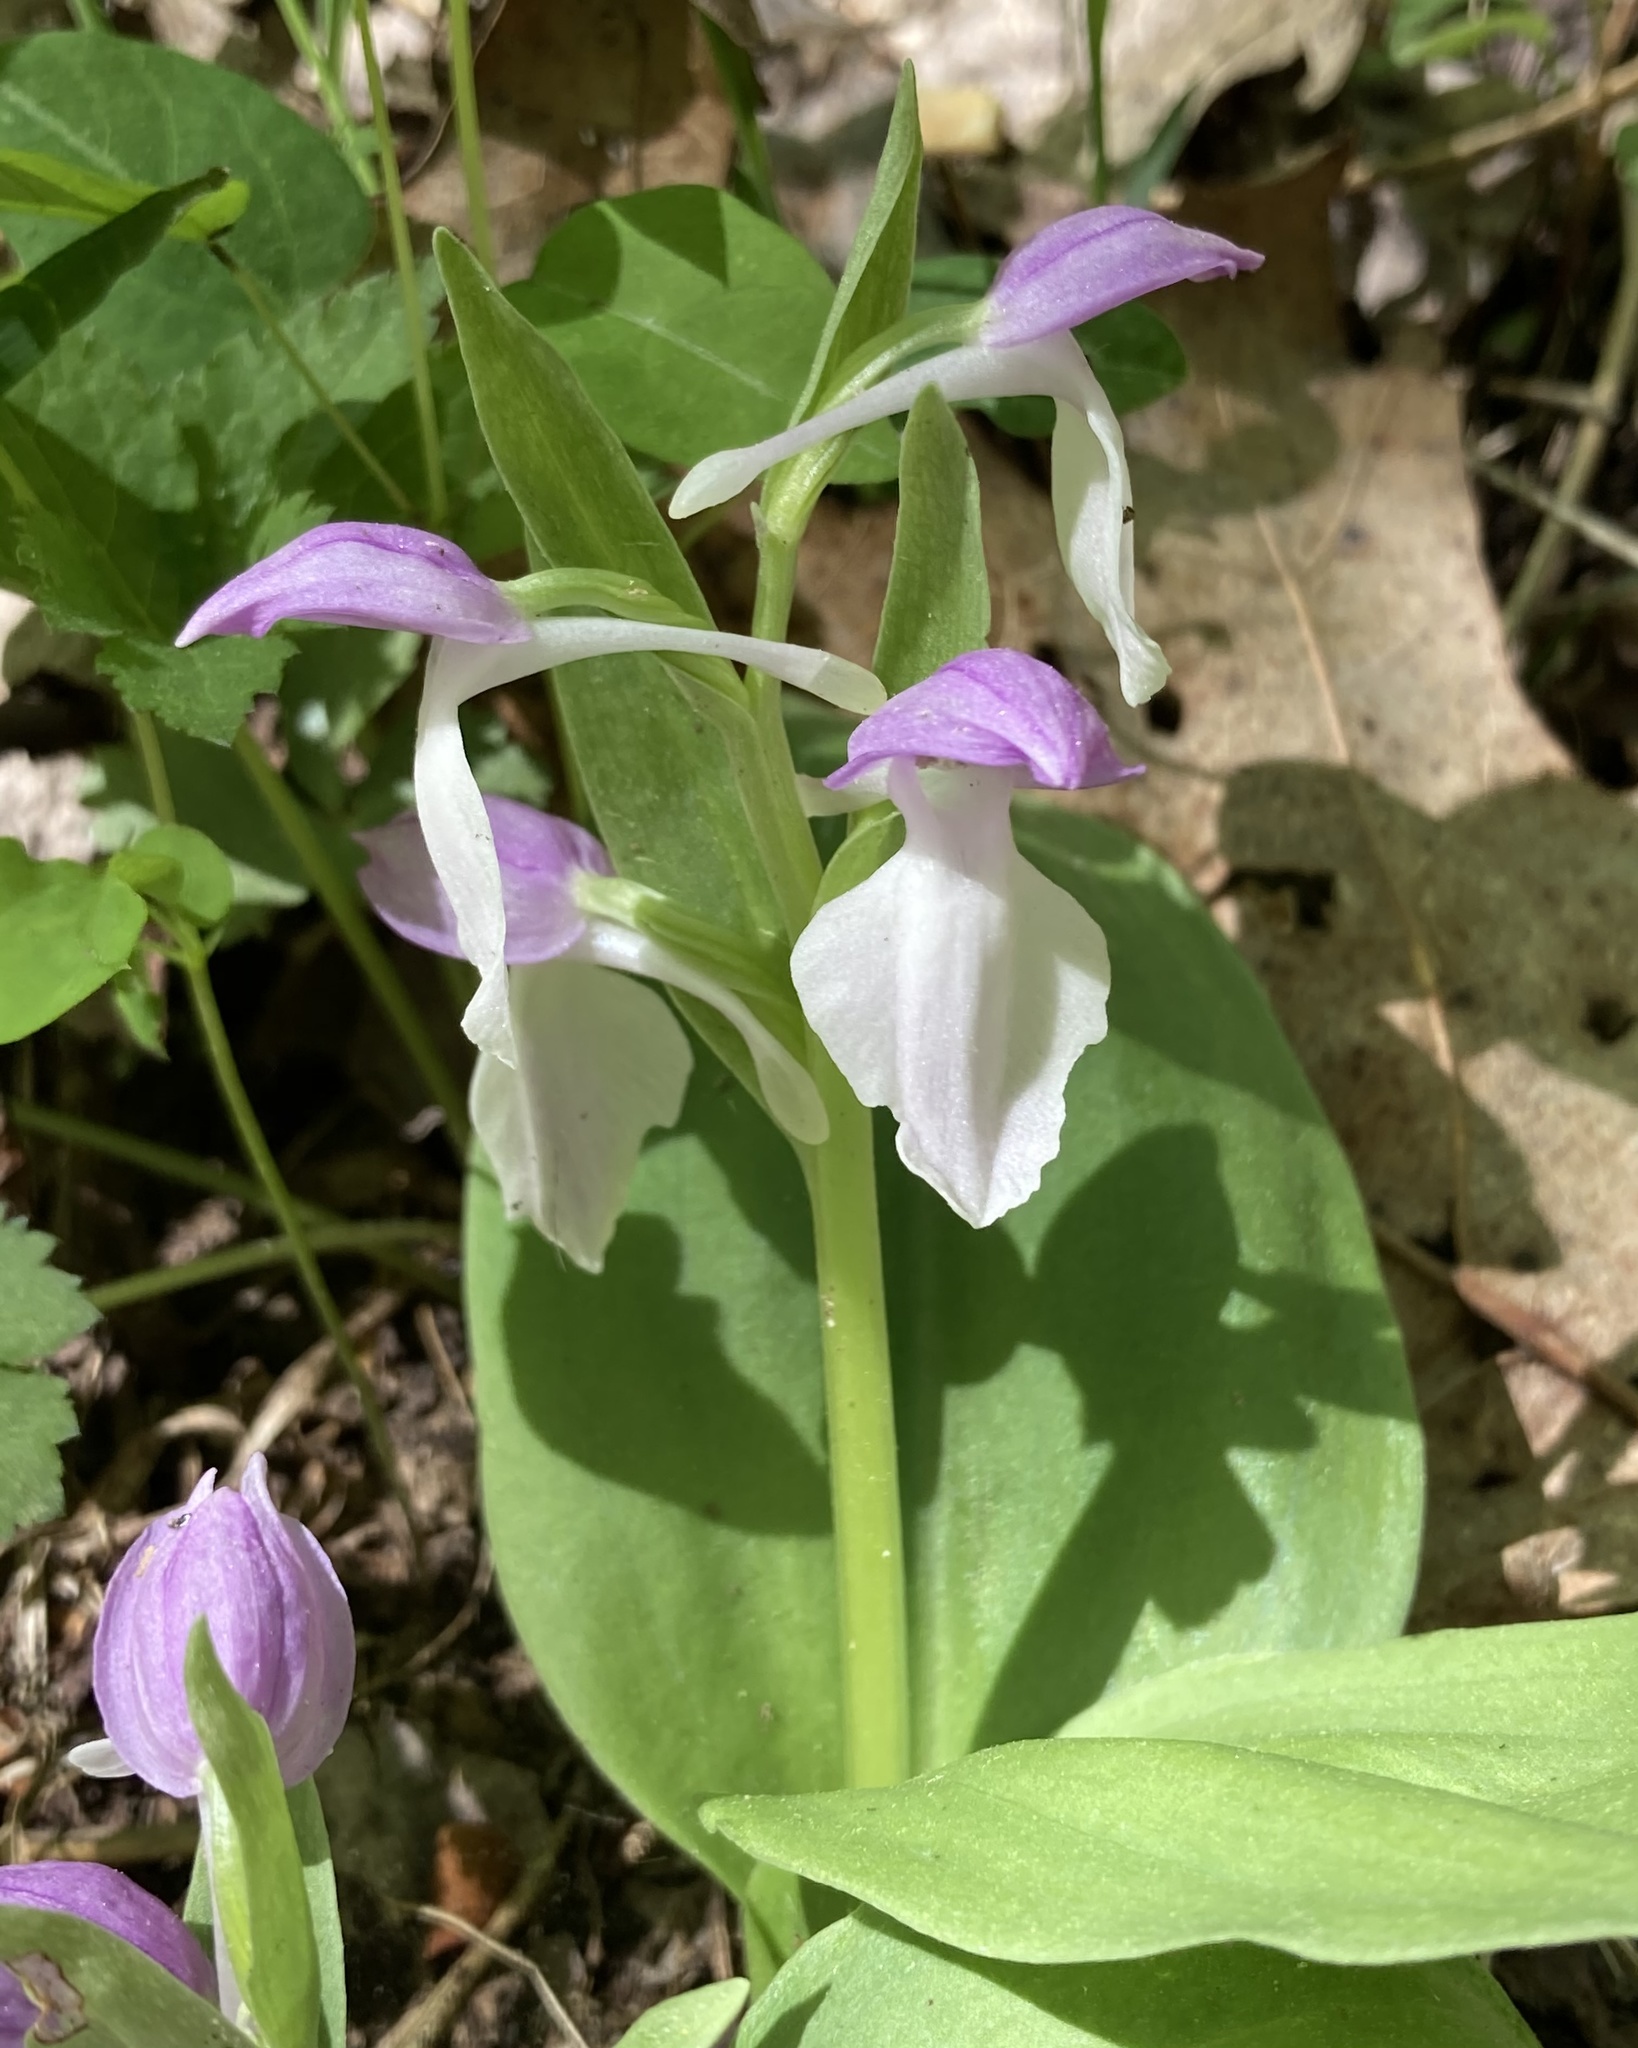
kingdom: Plantae
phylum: Tracheophyta
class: Liliopsida
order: Asparagales
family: Orchidaceae
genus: Galearis
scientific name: Galearis spectabilis
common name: Purple-hooded orchis
